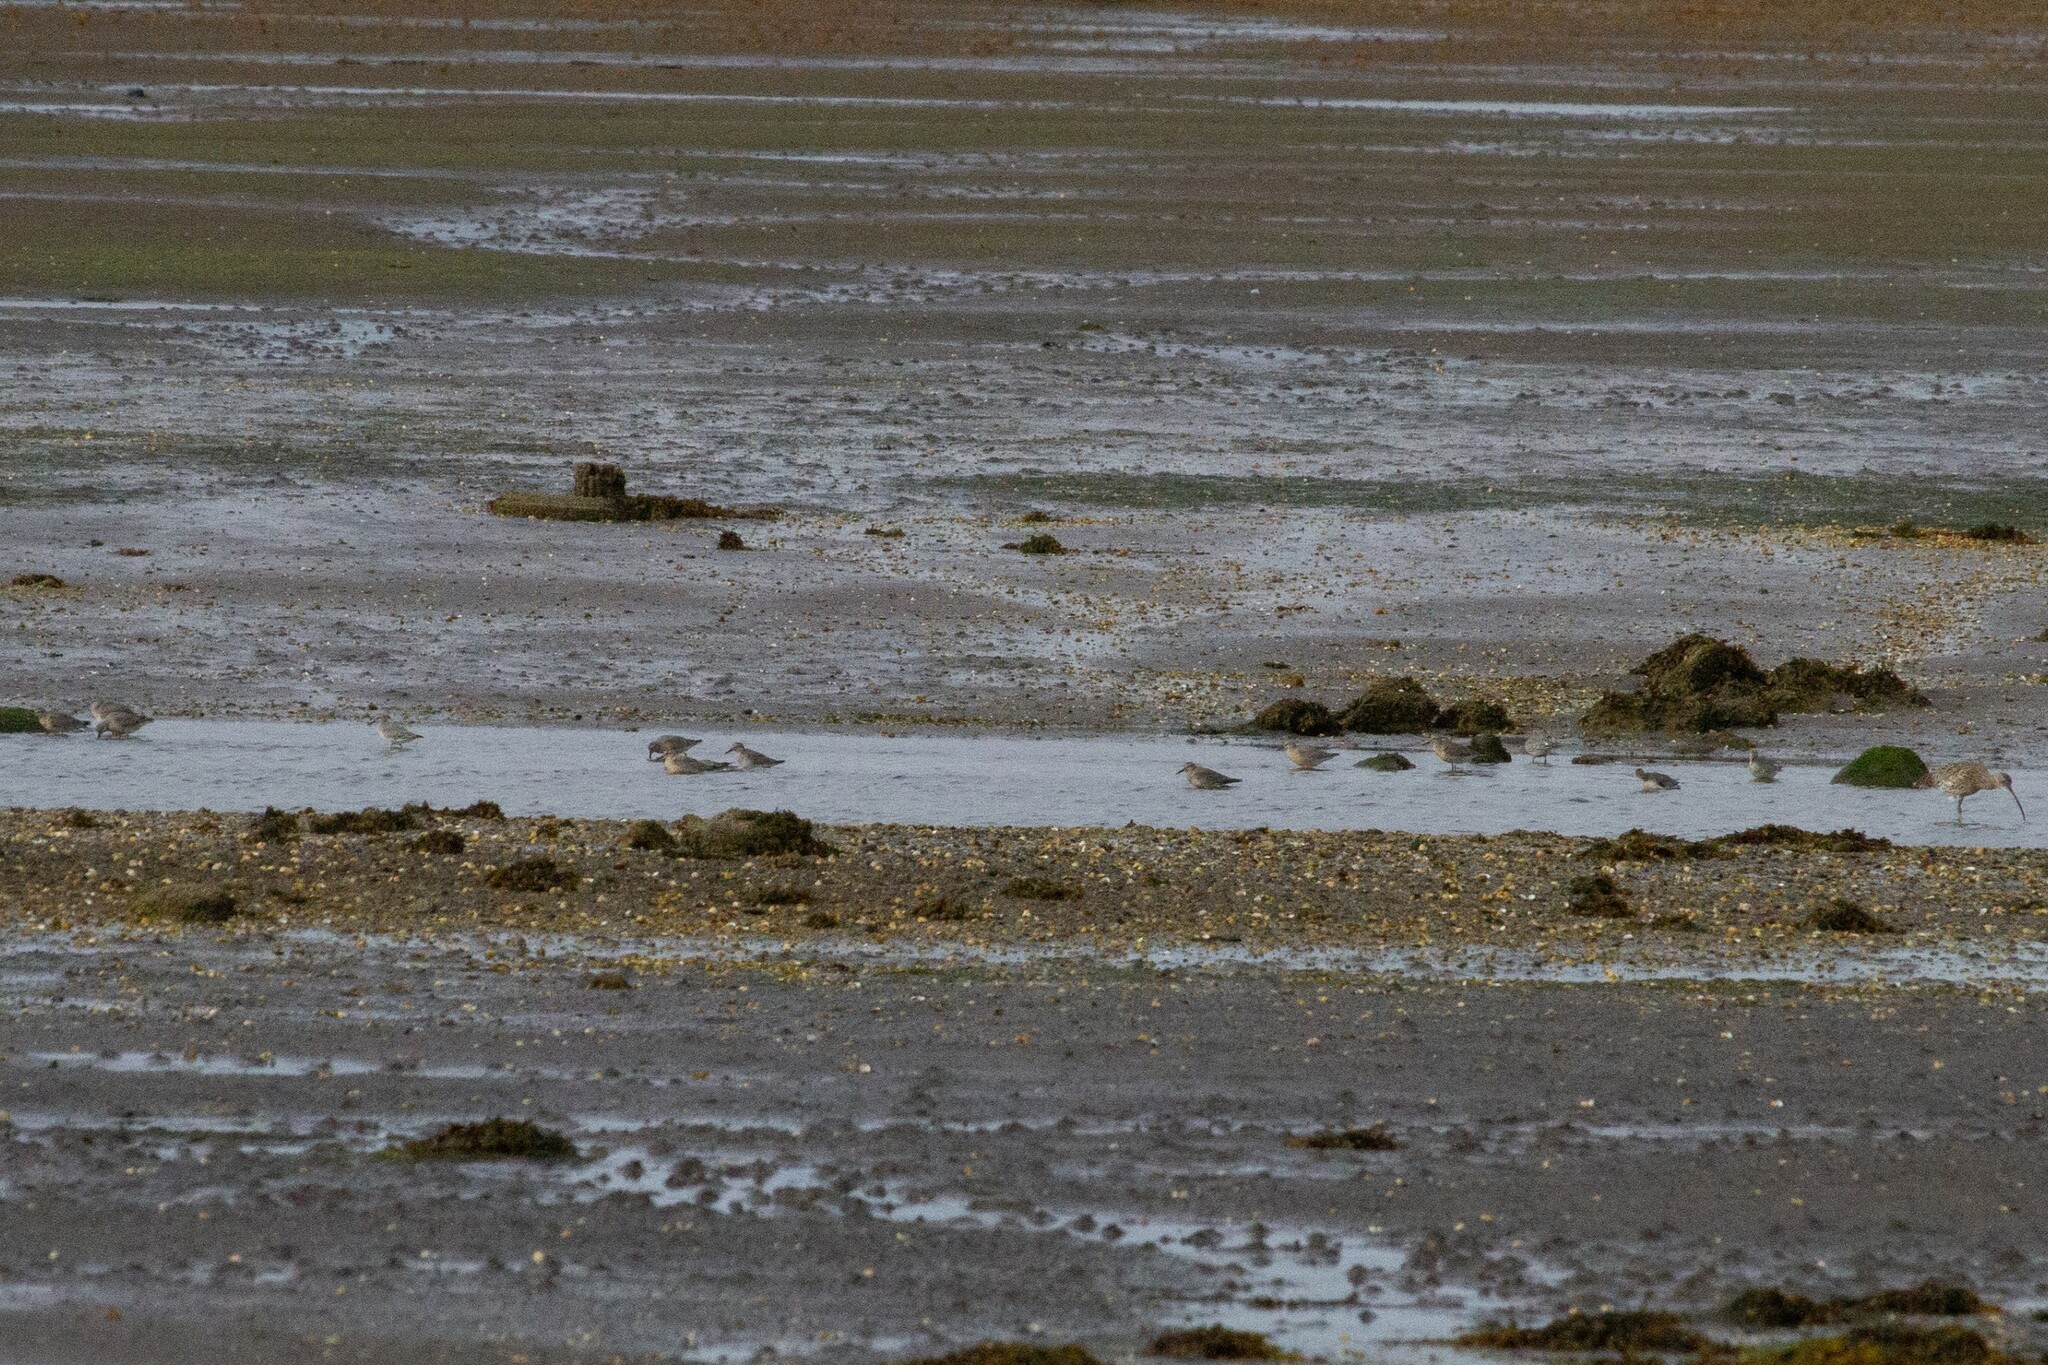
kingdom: Animalia
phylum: Chordata
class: Aves
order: Charadriiformes
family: Scolopacidae
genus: Calidris
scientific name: Calidris canutus
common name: Red knot
